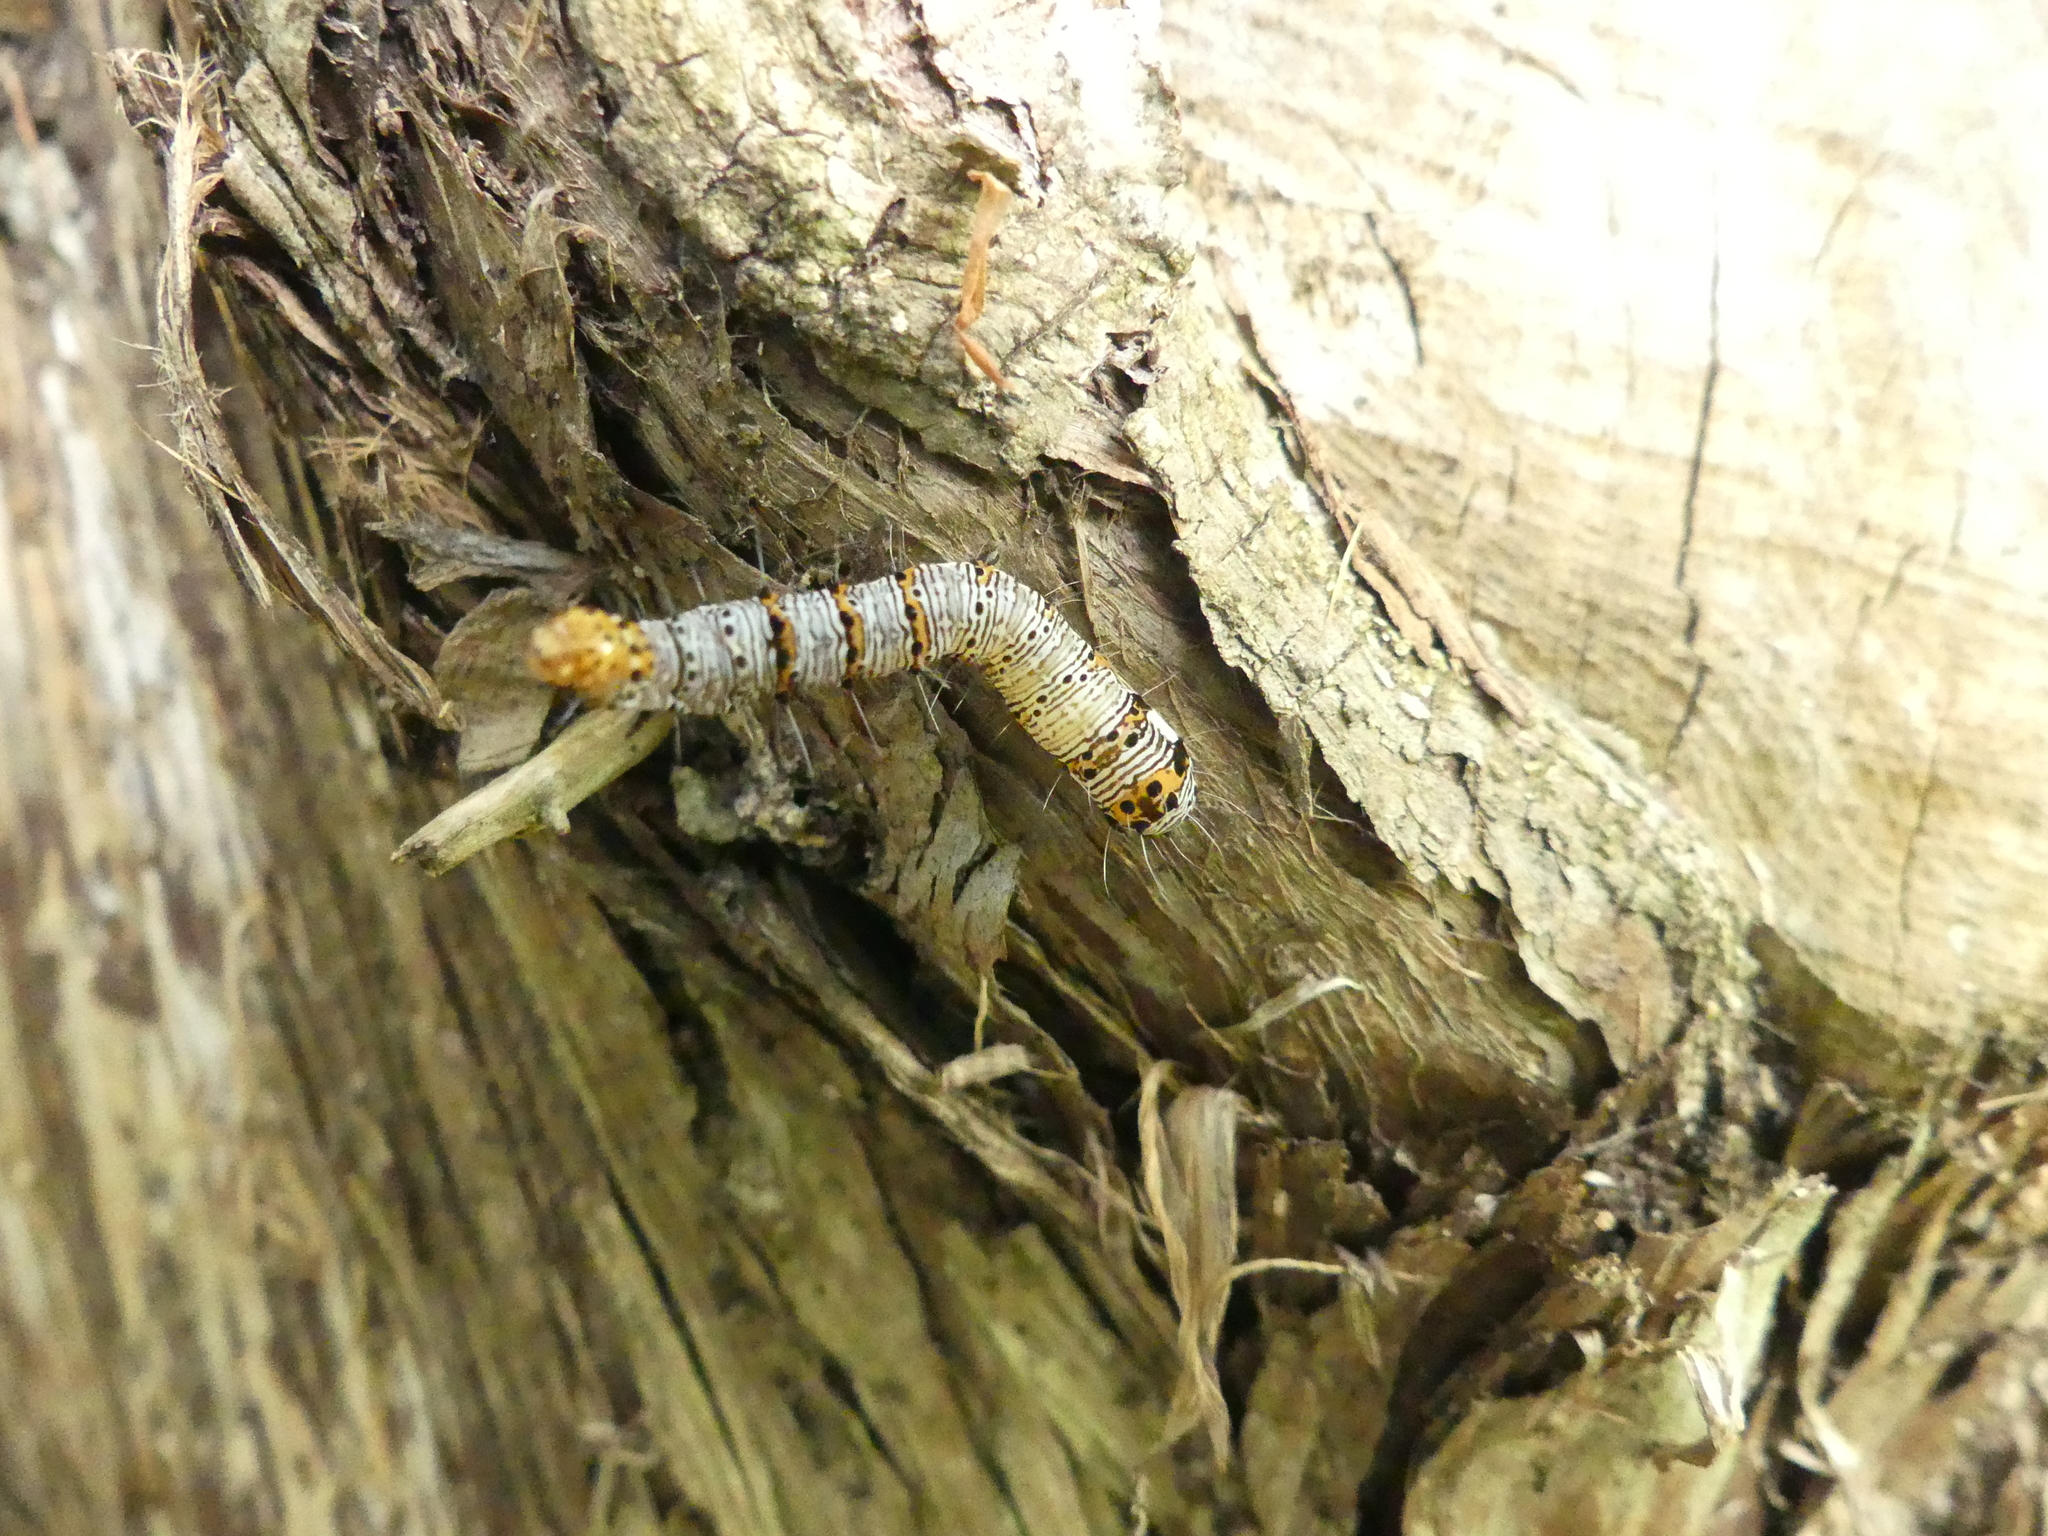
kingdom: Animalia
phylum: Arthropoda
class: Insecta
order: Lepidoptera
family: Noctuidae
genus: Alypia
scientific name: Alypia octomaculata
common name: Eight-spotted forester
